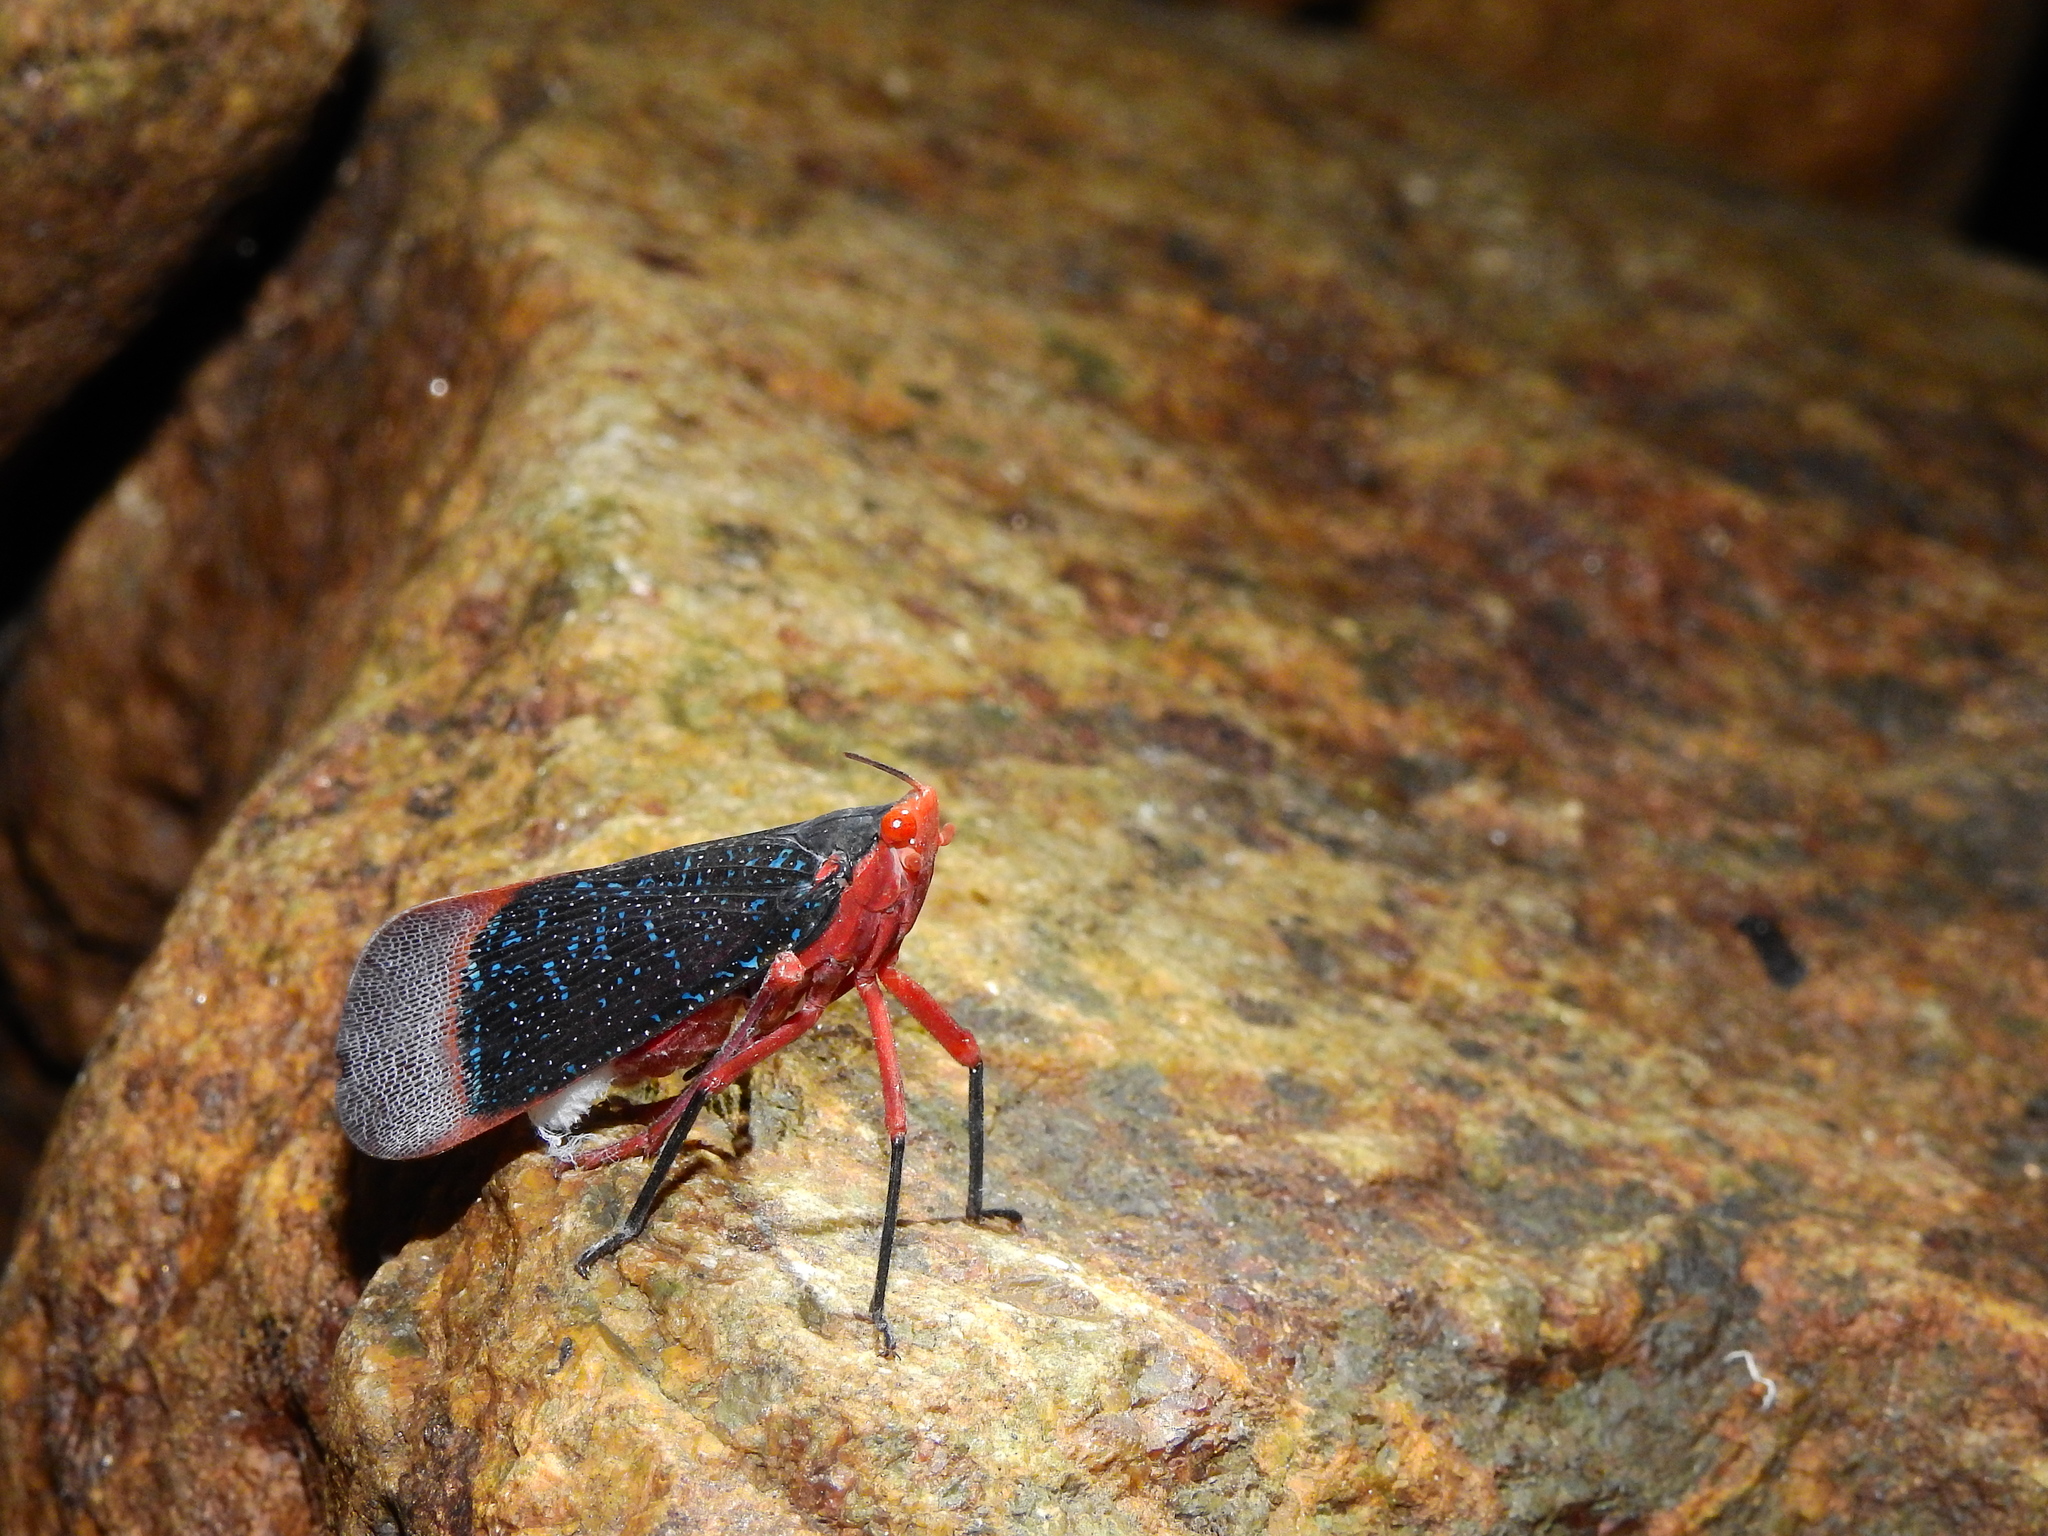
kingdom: Animalia
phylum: Arthropoda
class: Insecta
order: Hemiptera
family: Fulgoridae
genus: Kalidasa
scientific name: Kalidasa lanata
